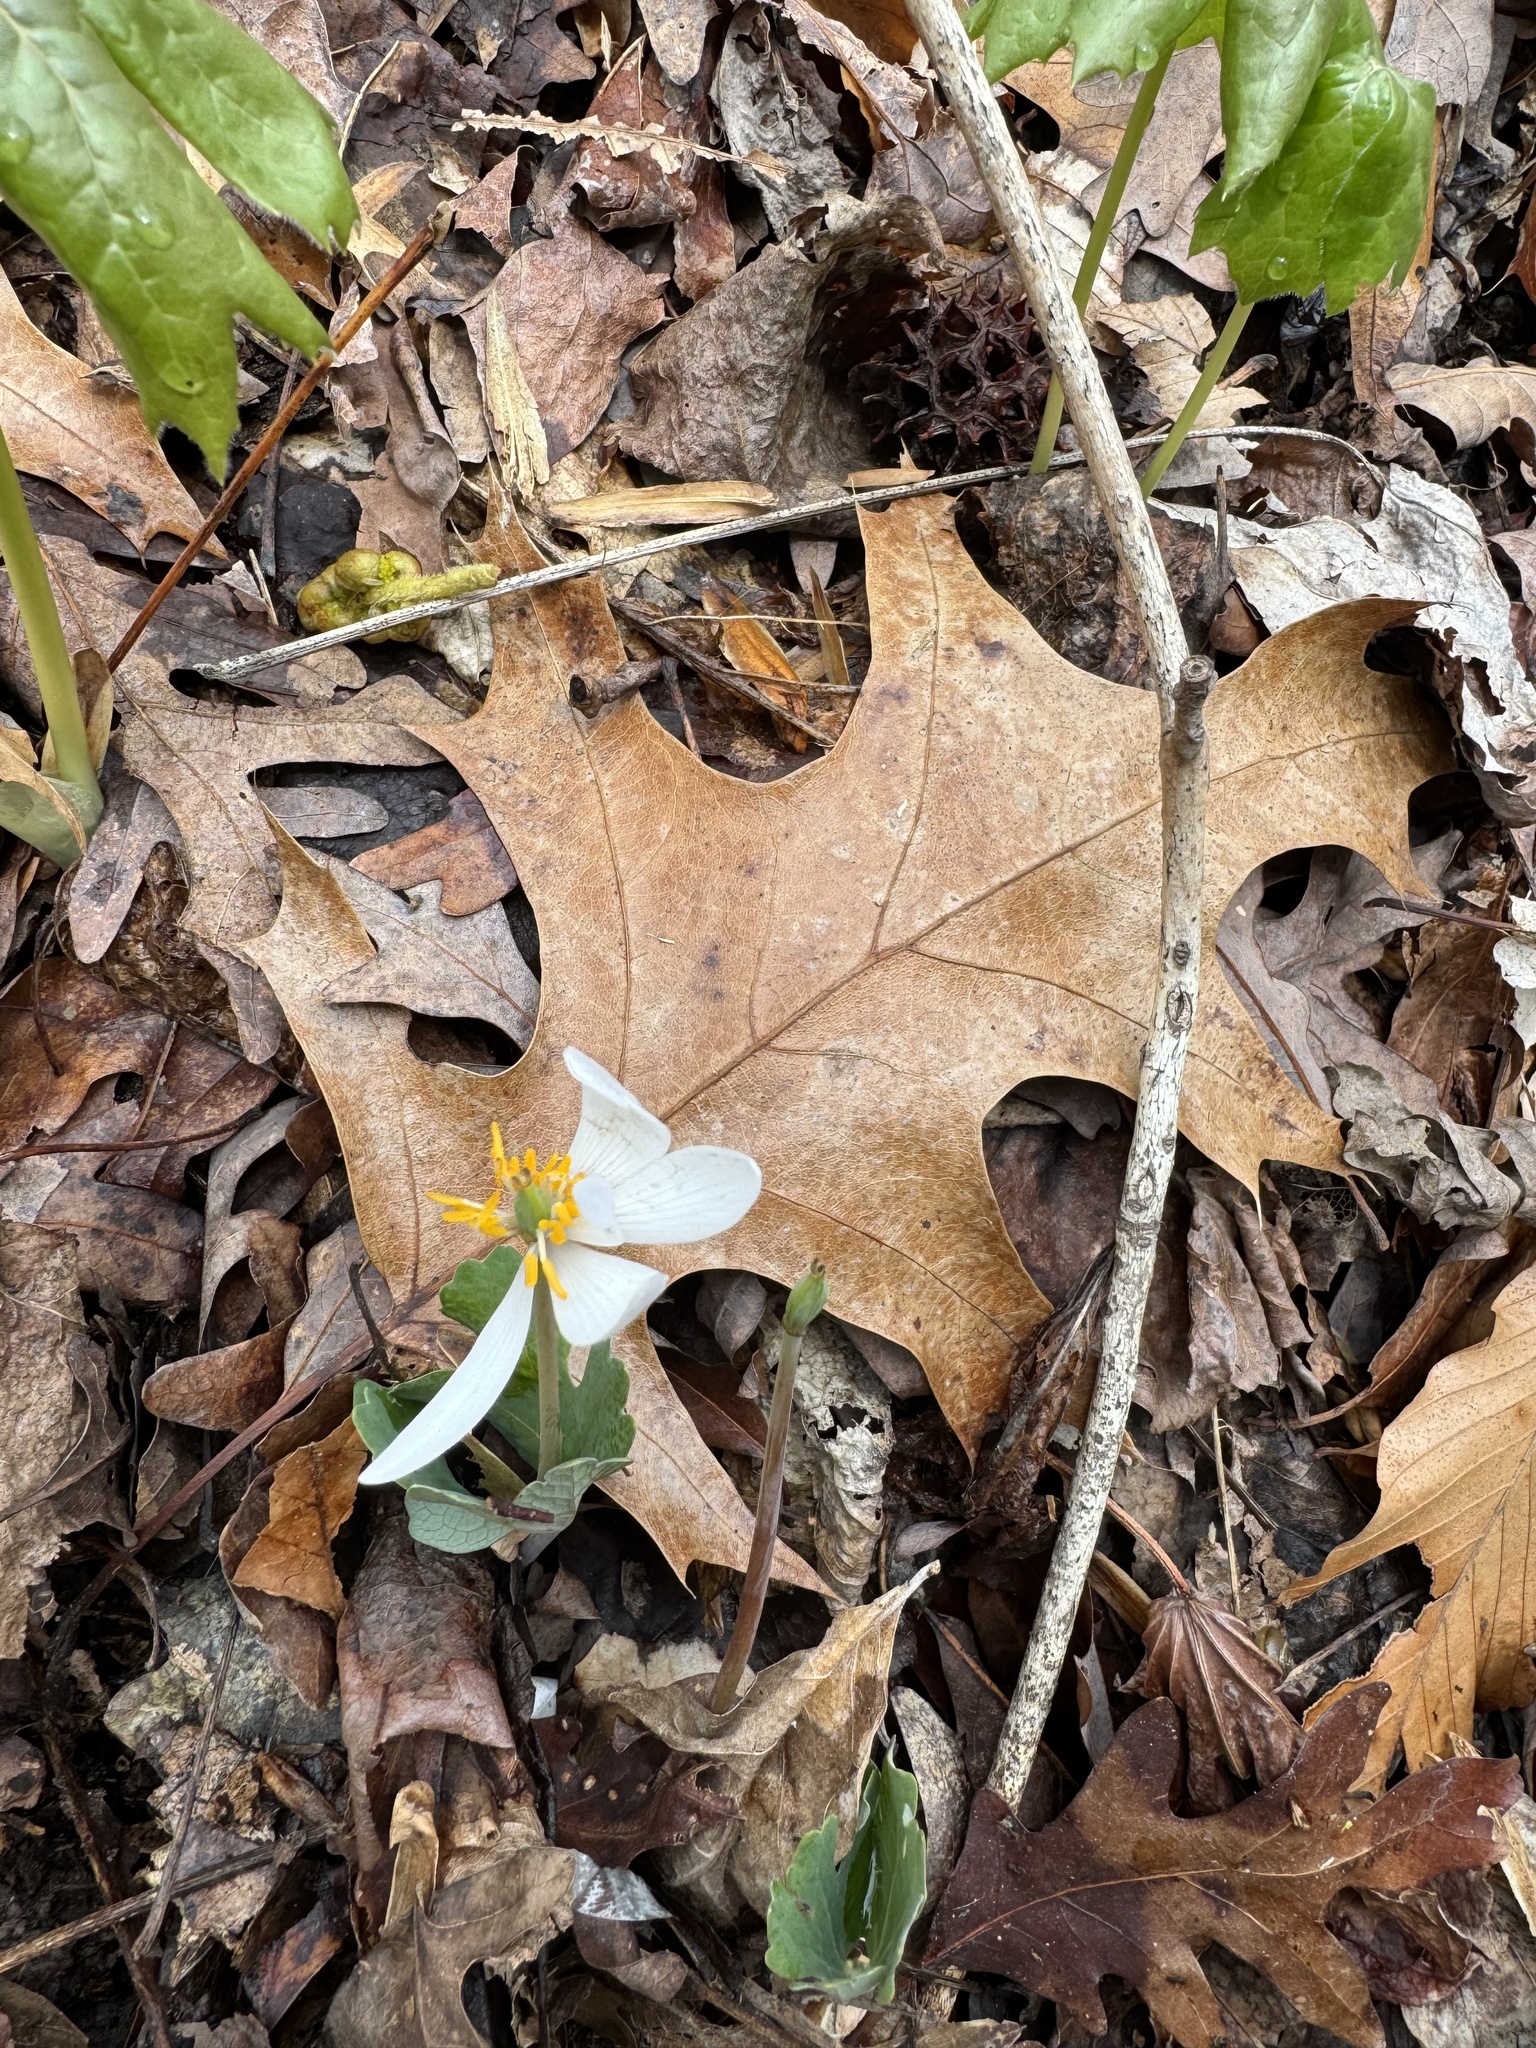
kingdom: Plantae
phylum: Tracheophyta
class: Magnoliopsida
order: Ranunculales
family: Papaveraceae
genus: Sanguinaria
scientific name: Sanguinaria canadensis
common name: Bloodroot
